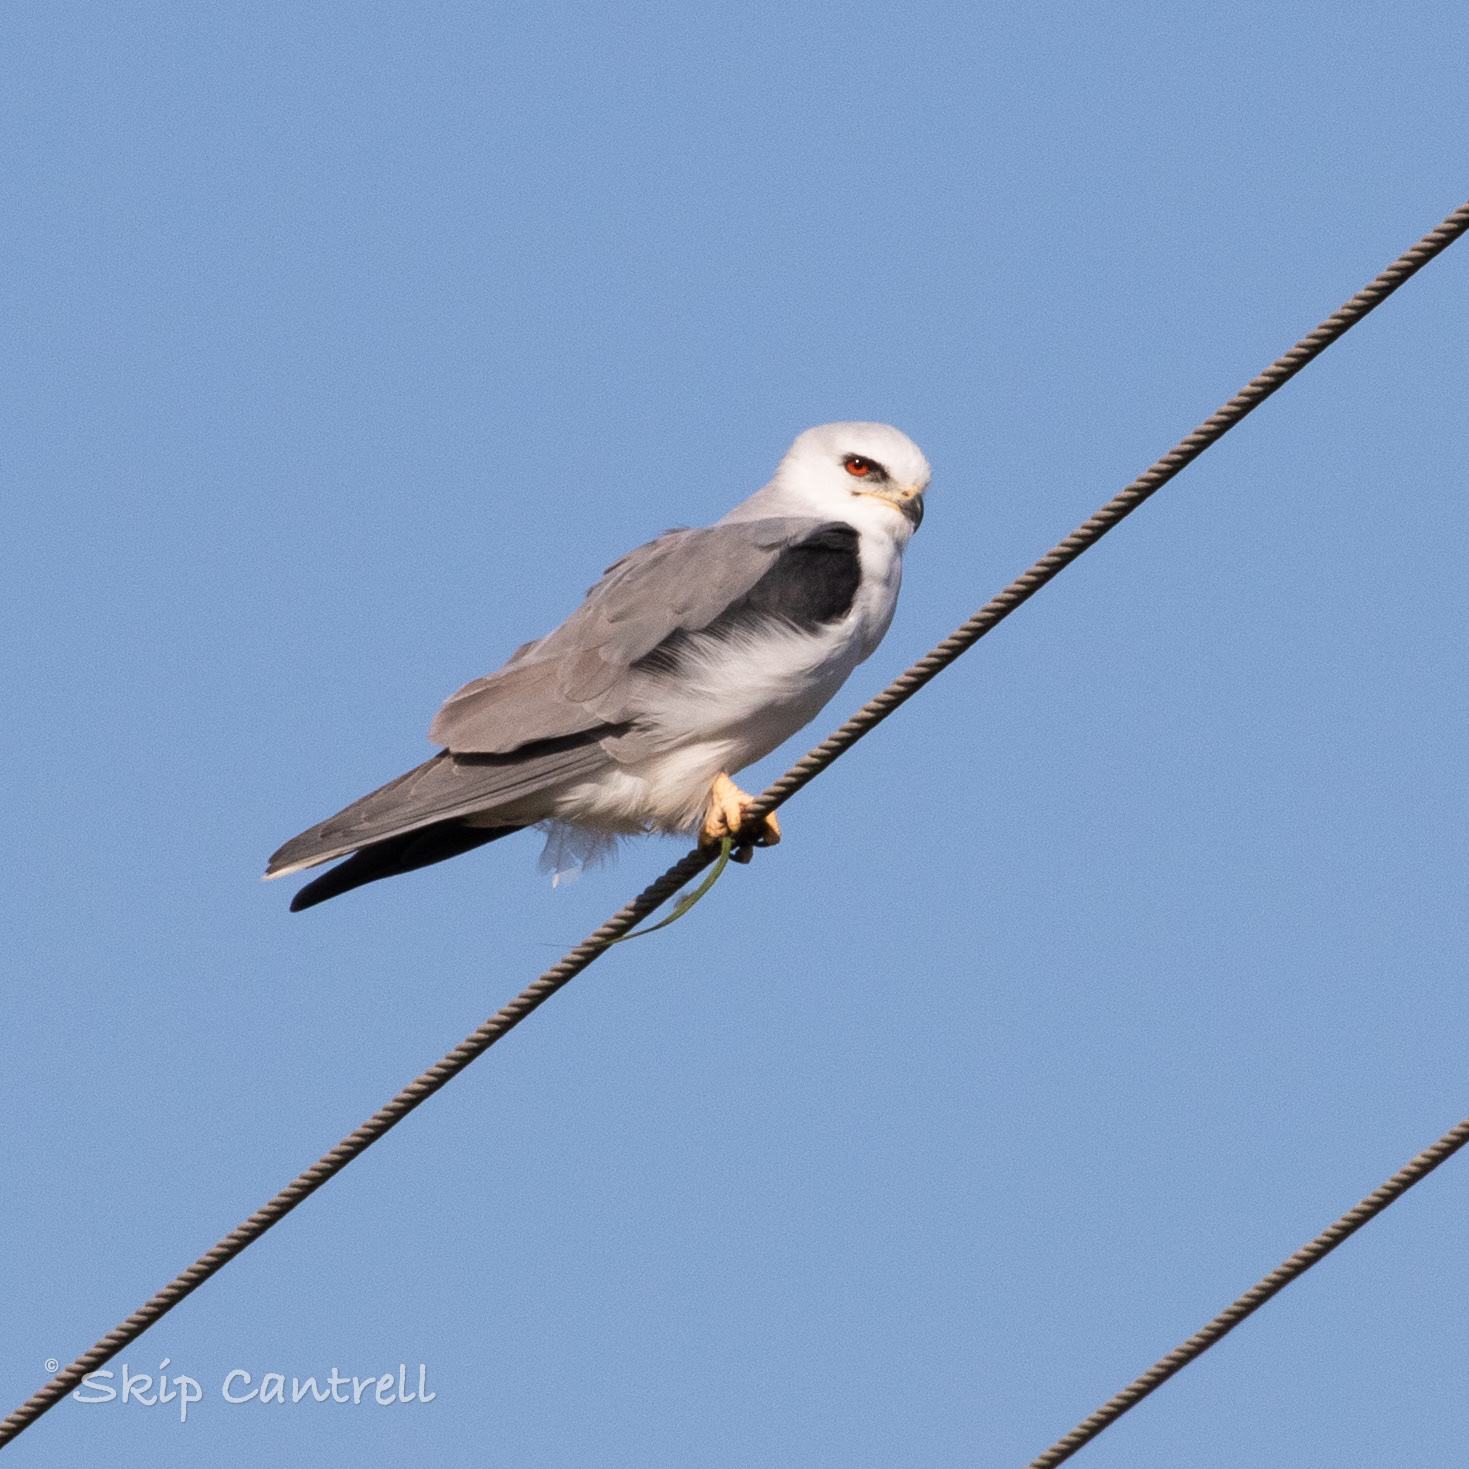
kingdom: Animalia
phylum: Chordata
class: Aves
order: Accipitriformes
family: Accipitridae
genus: Elanus
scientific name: Elanus leucurus
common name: White-tailed kite
